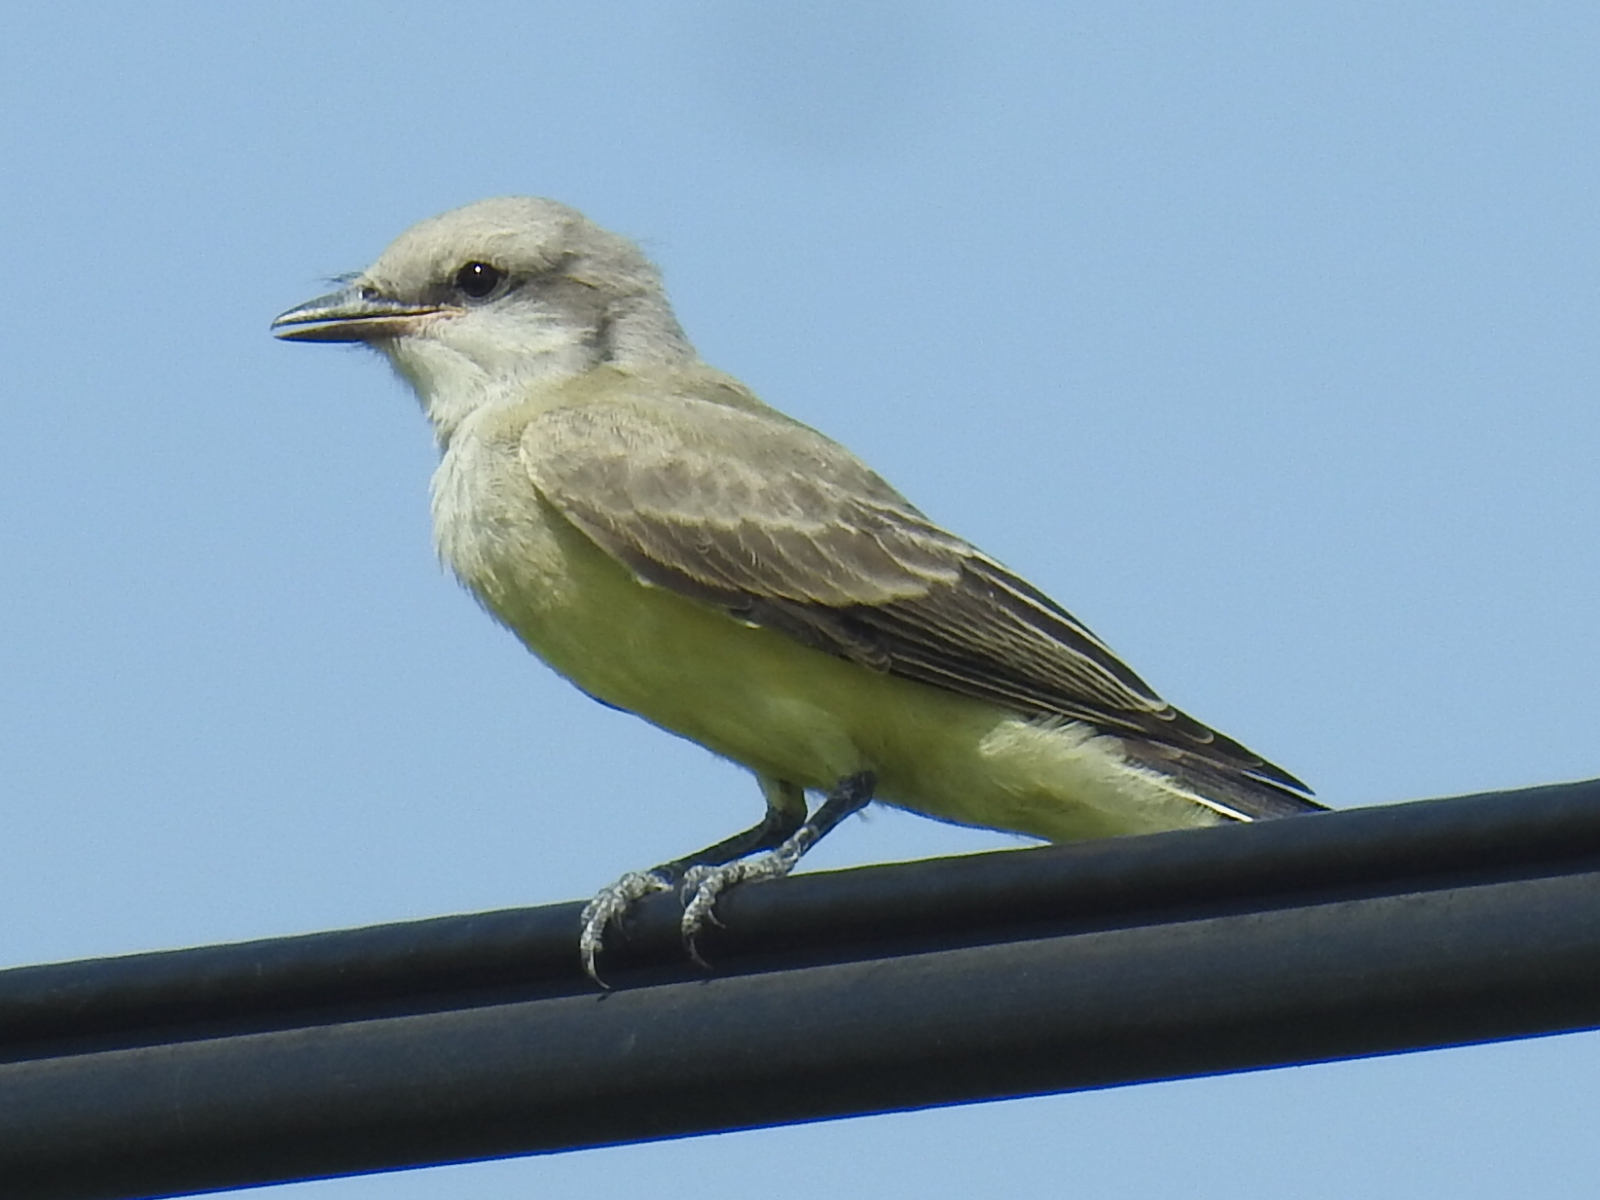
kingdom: Animalia
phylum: Chordata
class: Aves
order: Passeriformes
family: Tyrannidae
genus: Tyrannus
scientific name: Tyrannus verticalis
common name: Western kingbird
